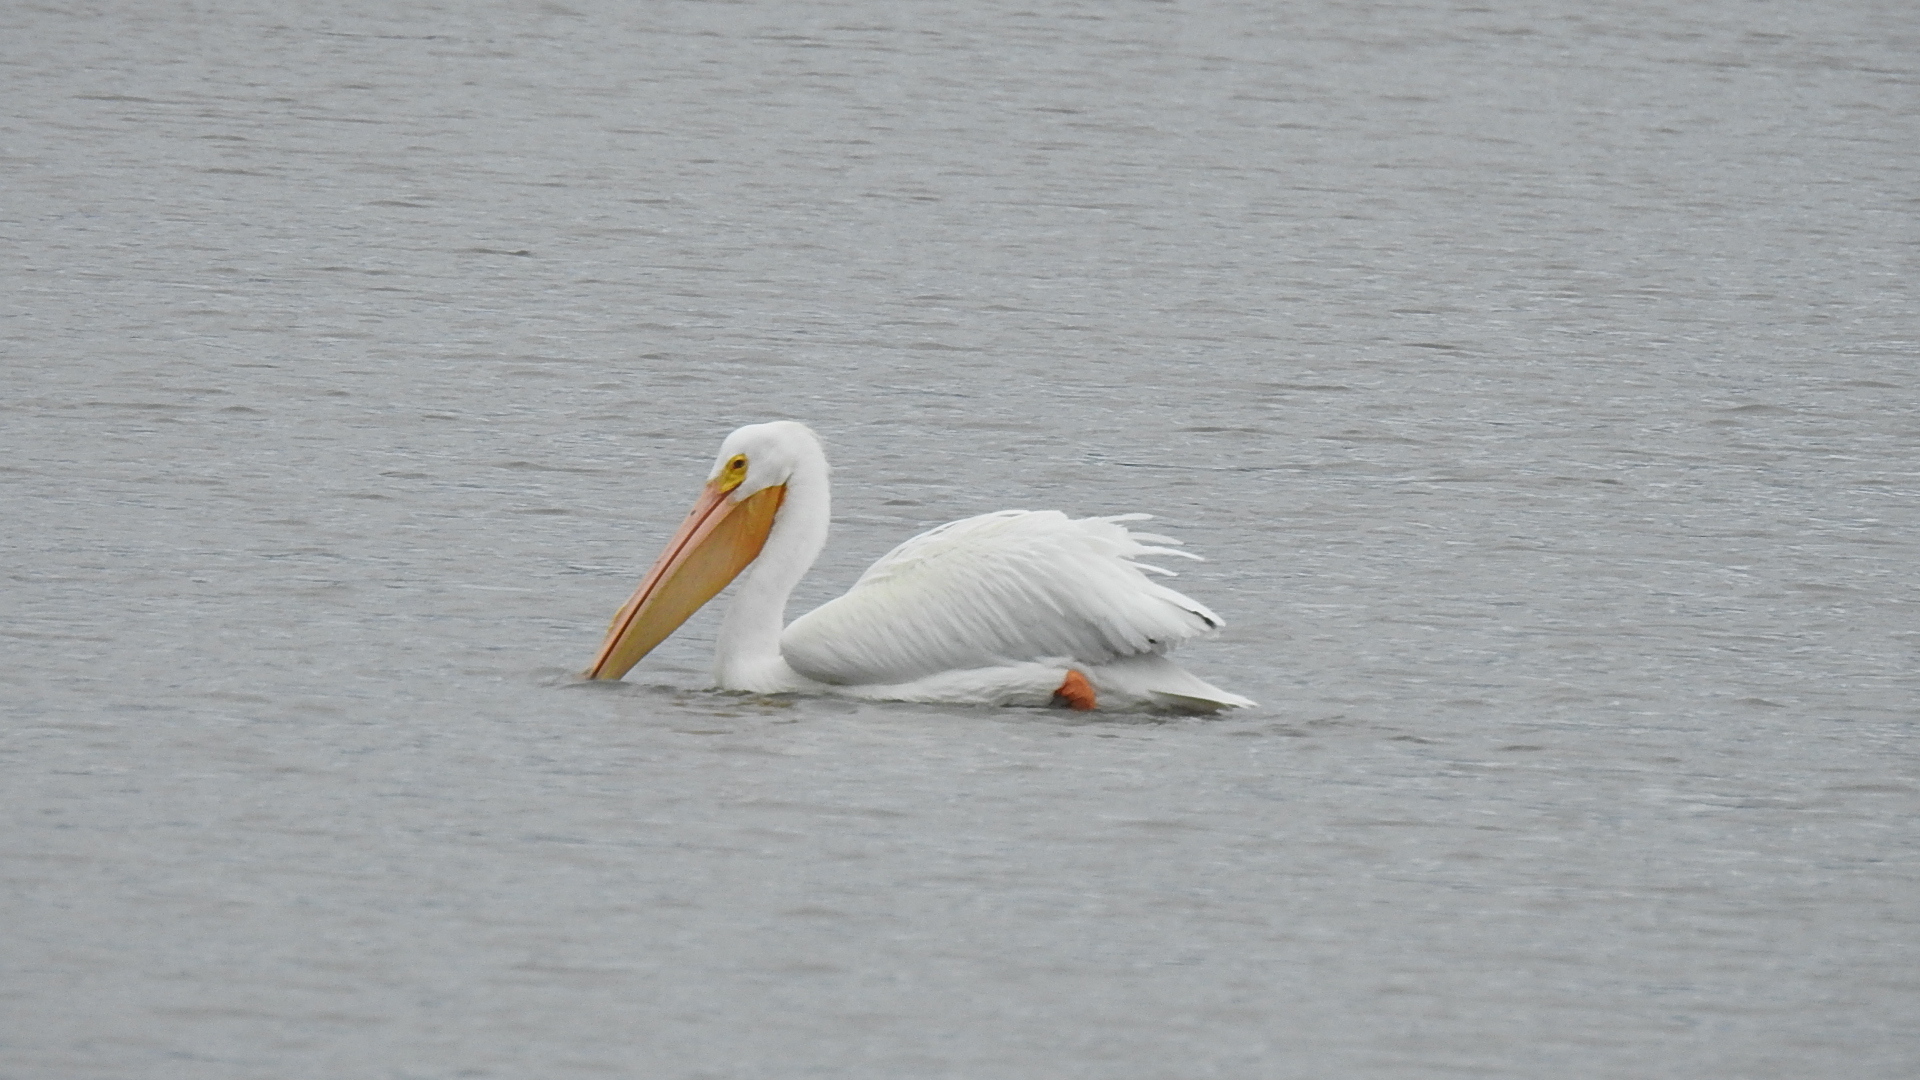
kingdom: Animalia
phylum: Chordata
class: Aves
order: Pelecaniformes
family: Pelecanidae
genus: Pelecanus
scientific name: Pelecanus erythrorhynchos
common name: American white pelican
